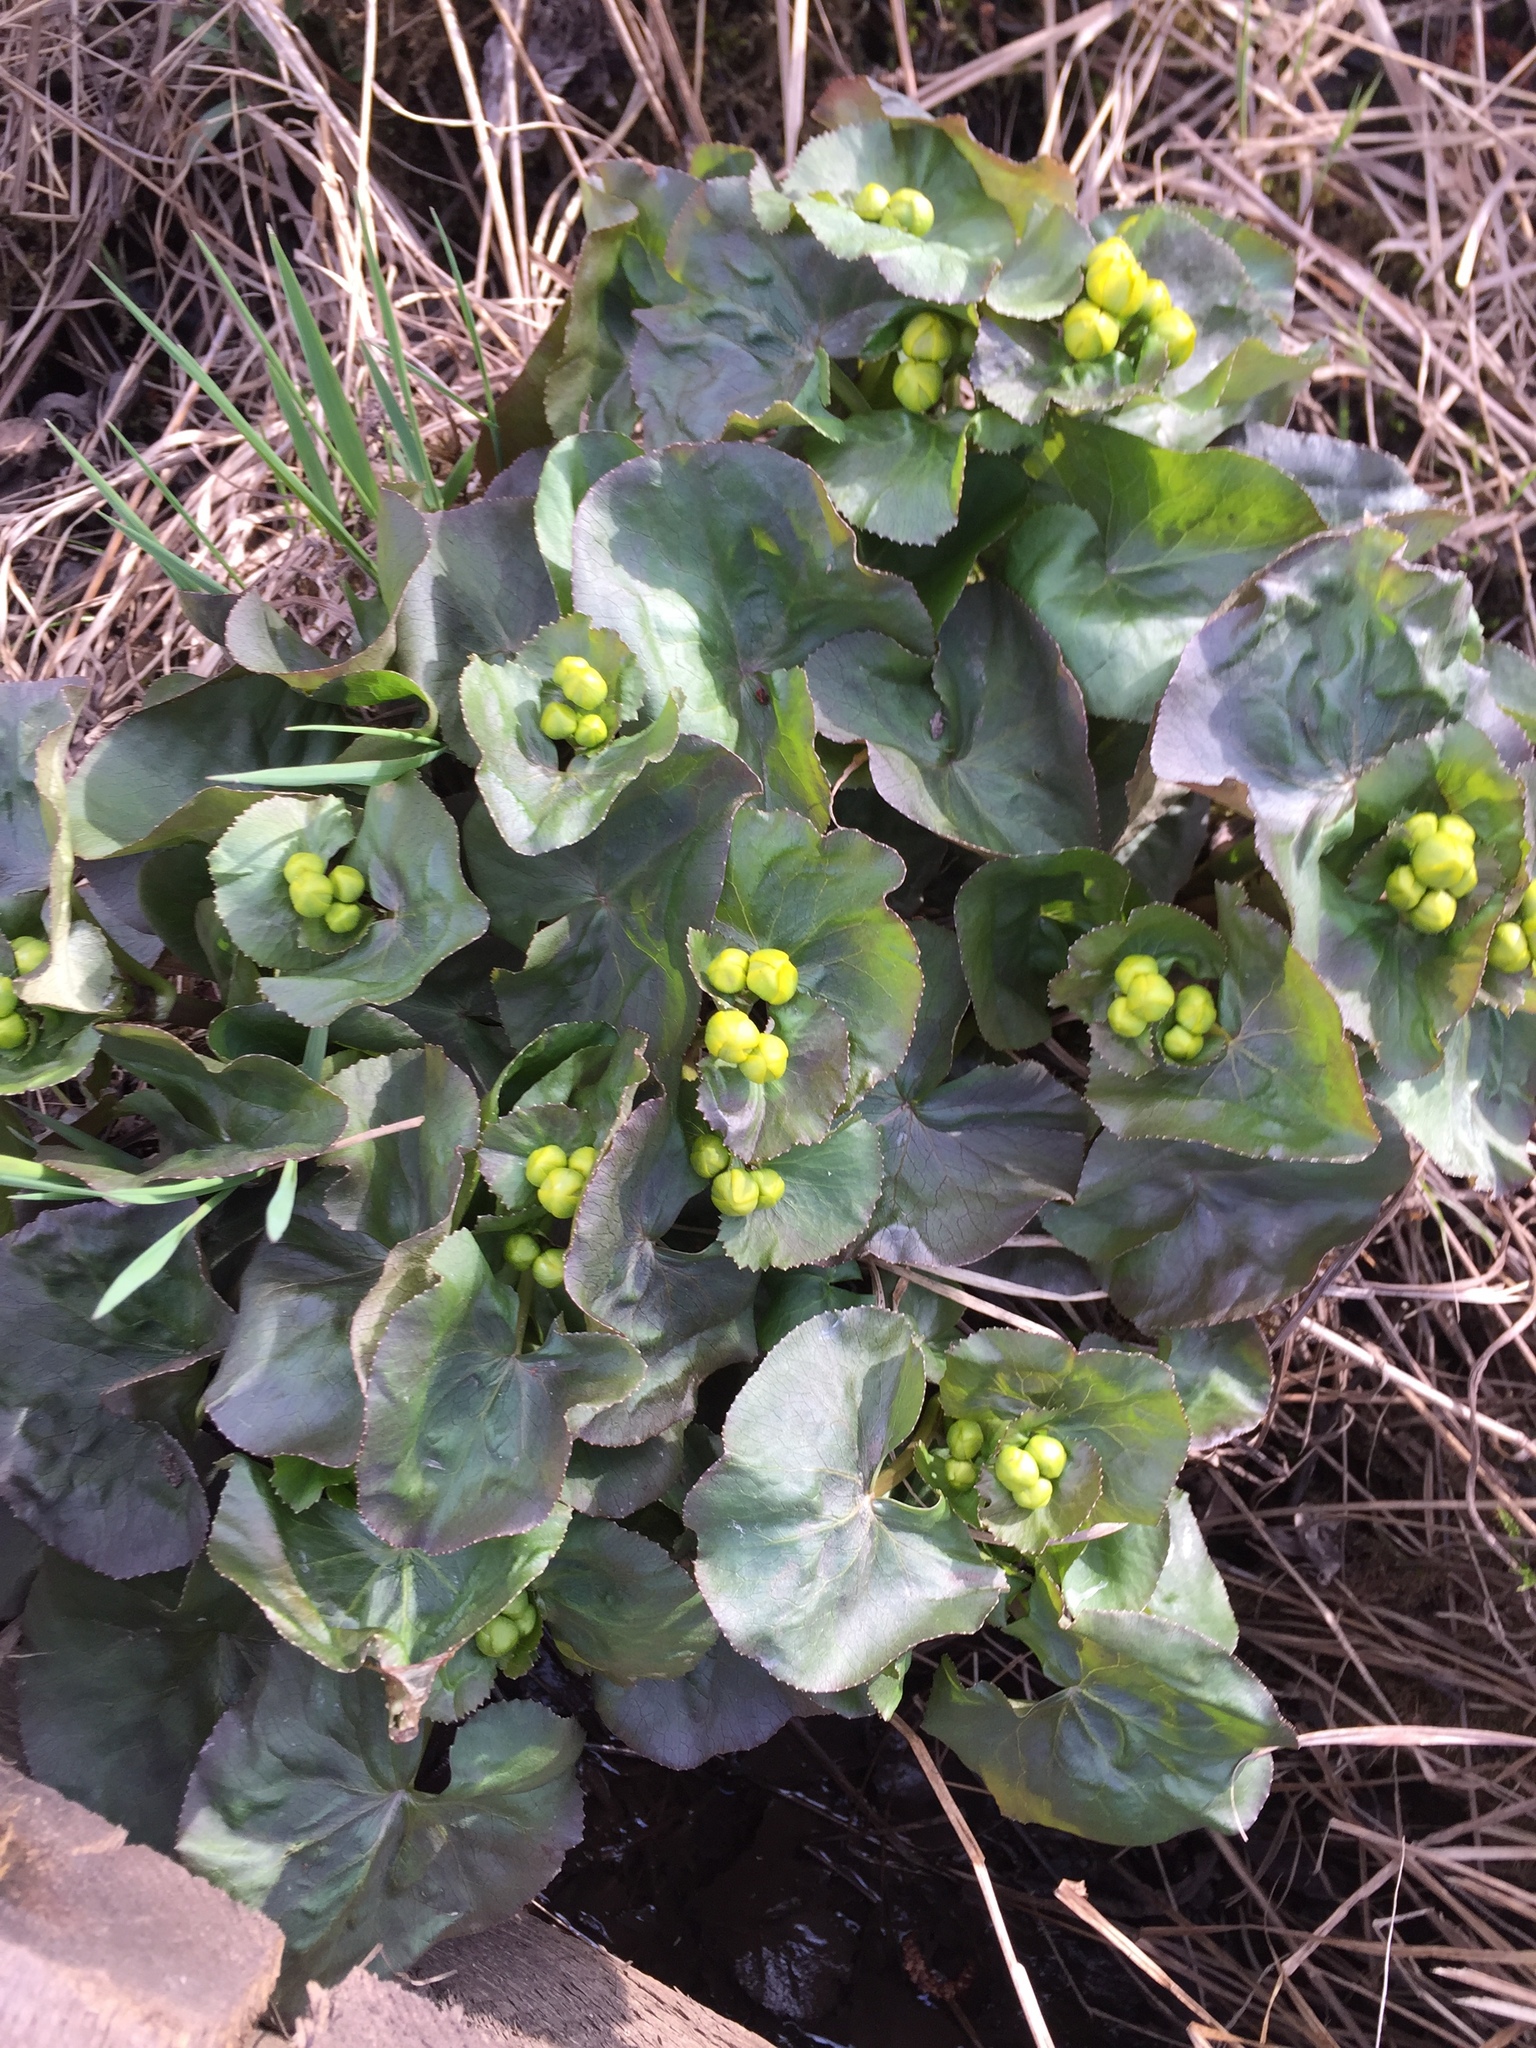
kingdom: Plantae
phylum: Tracheophyta
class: Magnoliopsida
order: Ranunculales
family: Ranunculaceae
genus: Caltha
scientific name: Caltha palustris
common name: Marsh marigold
